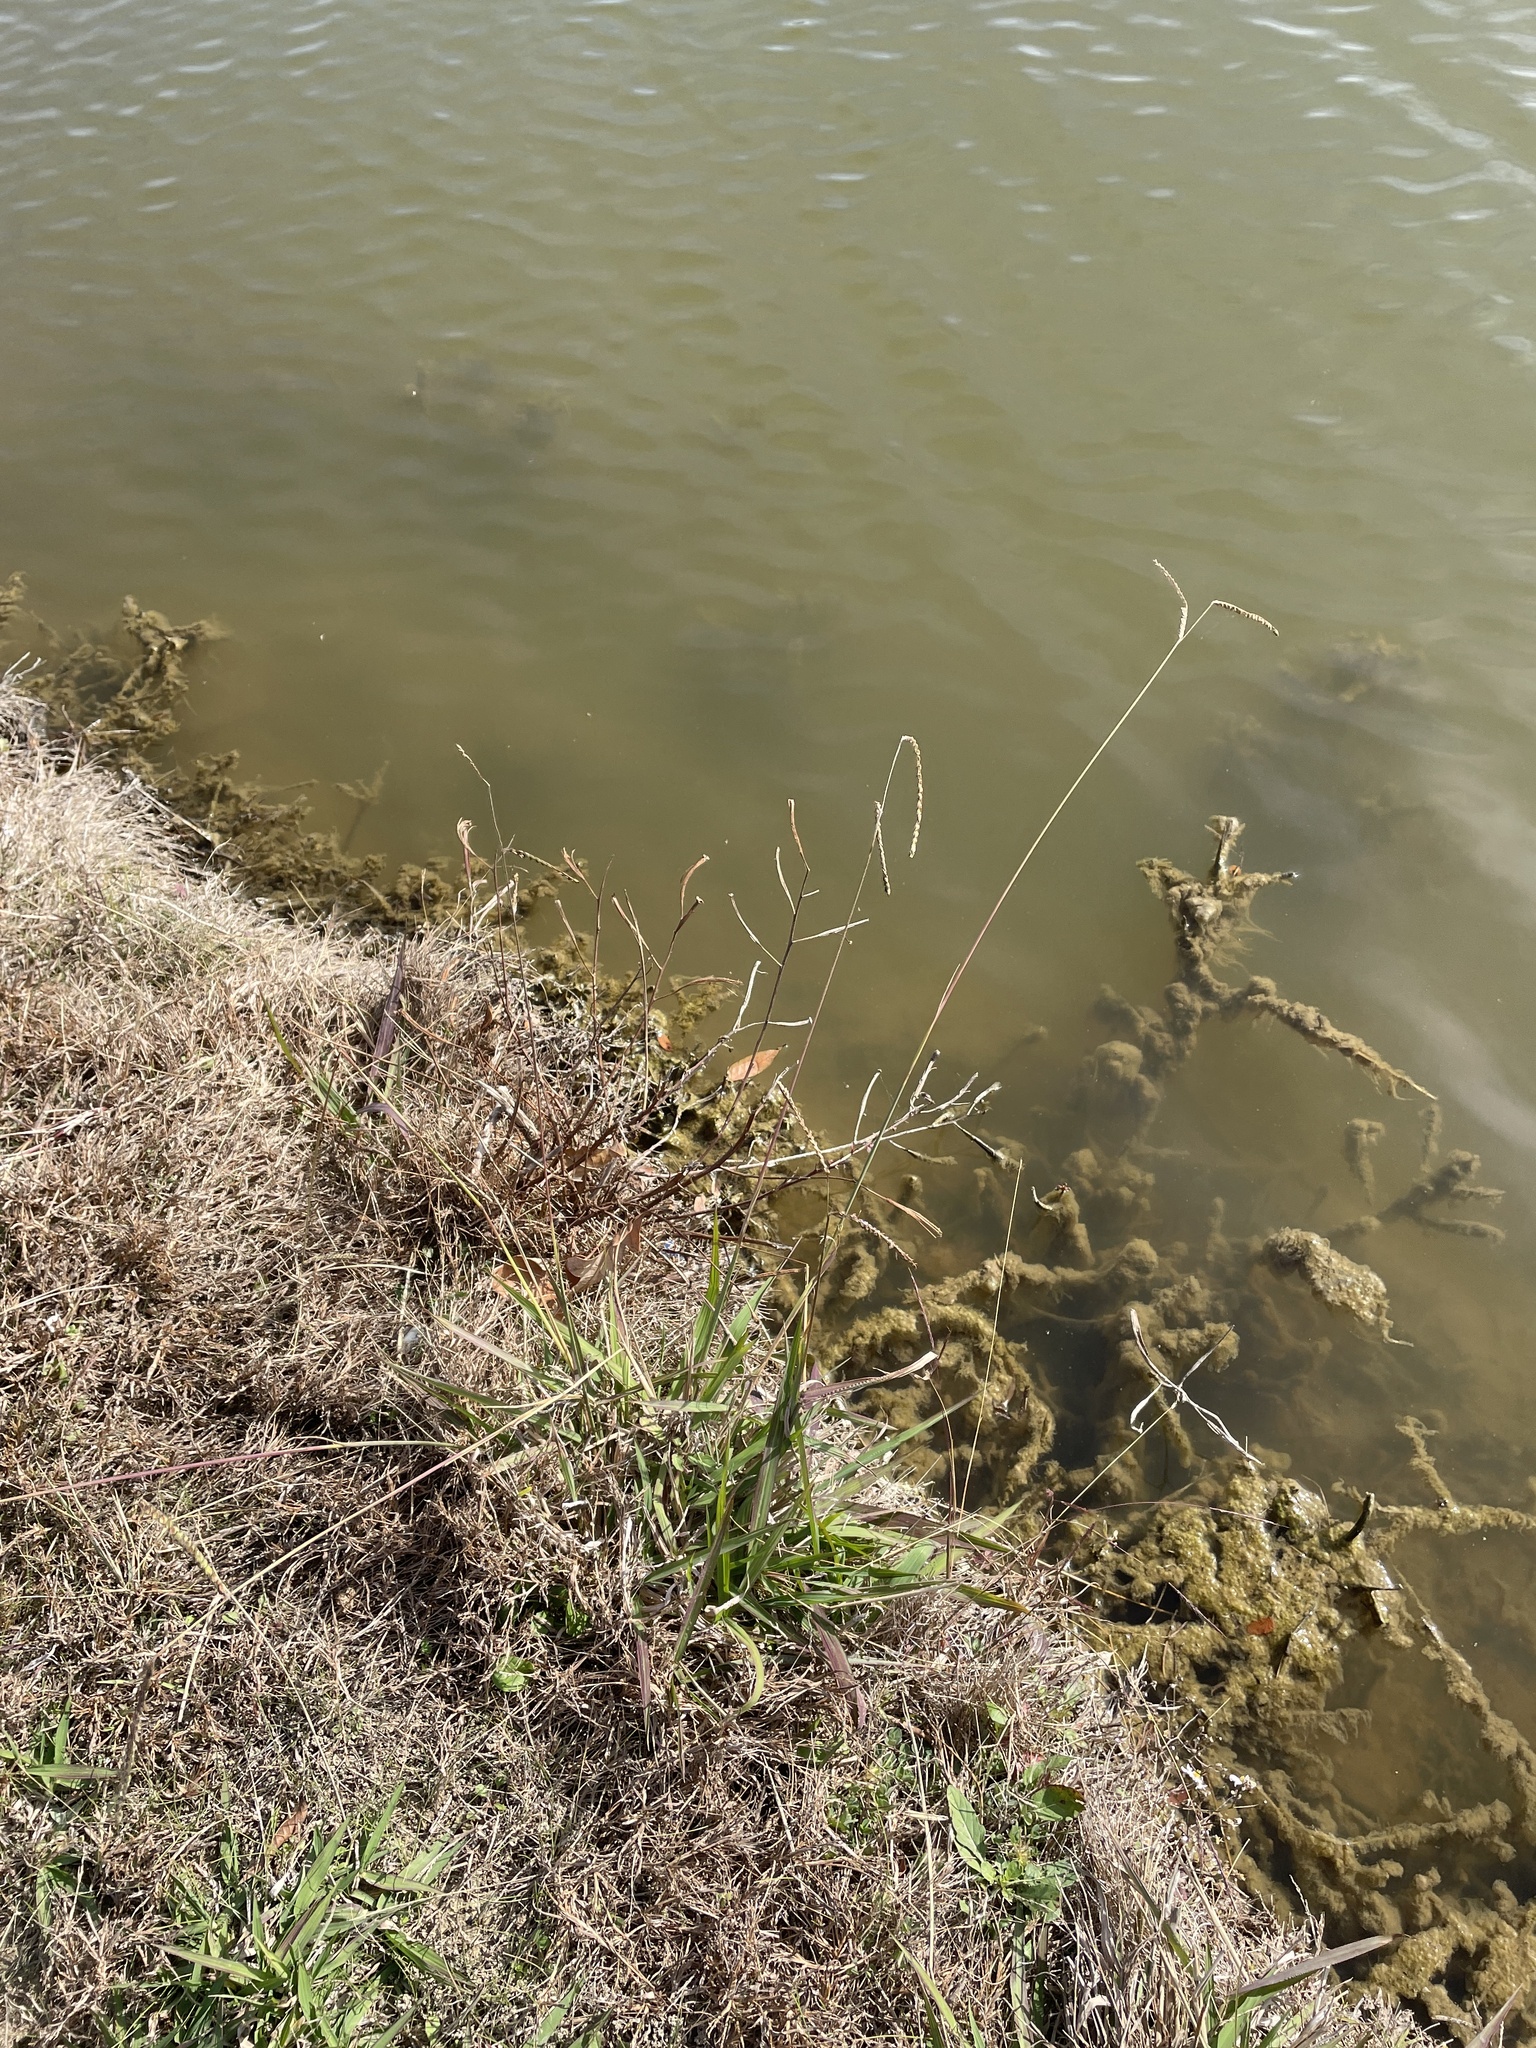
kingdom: Plantae
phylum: Tracheophyta
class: Liliopsida
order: Poales
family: Poaceae
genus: Paspalum
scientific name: Paspalum dilatatum
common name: Dallisgrass
